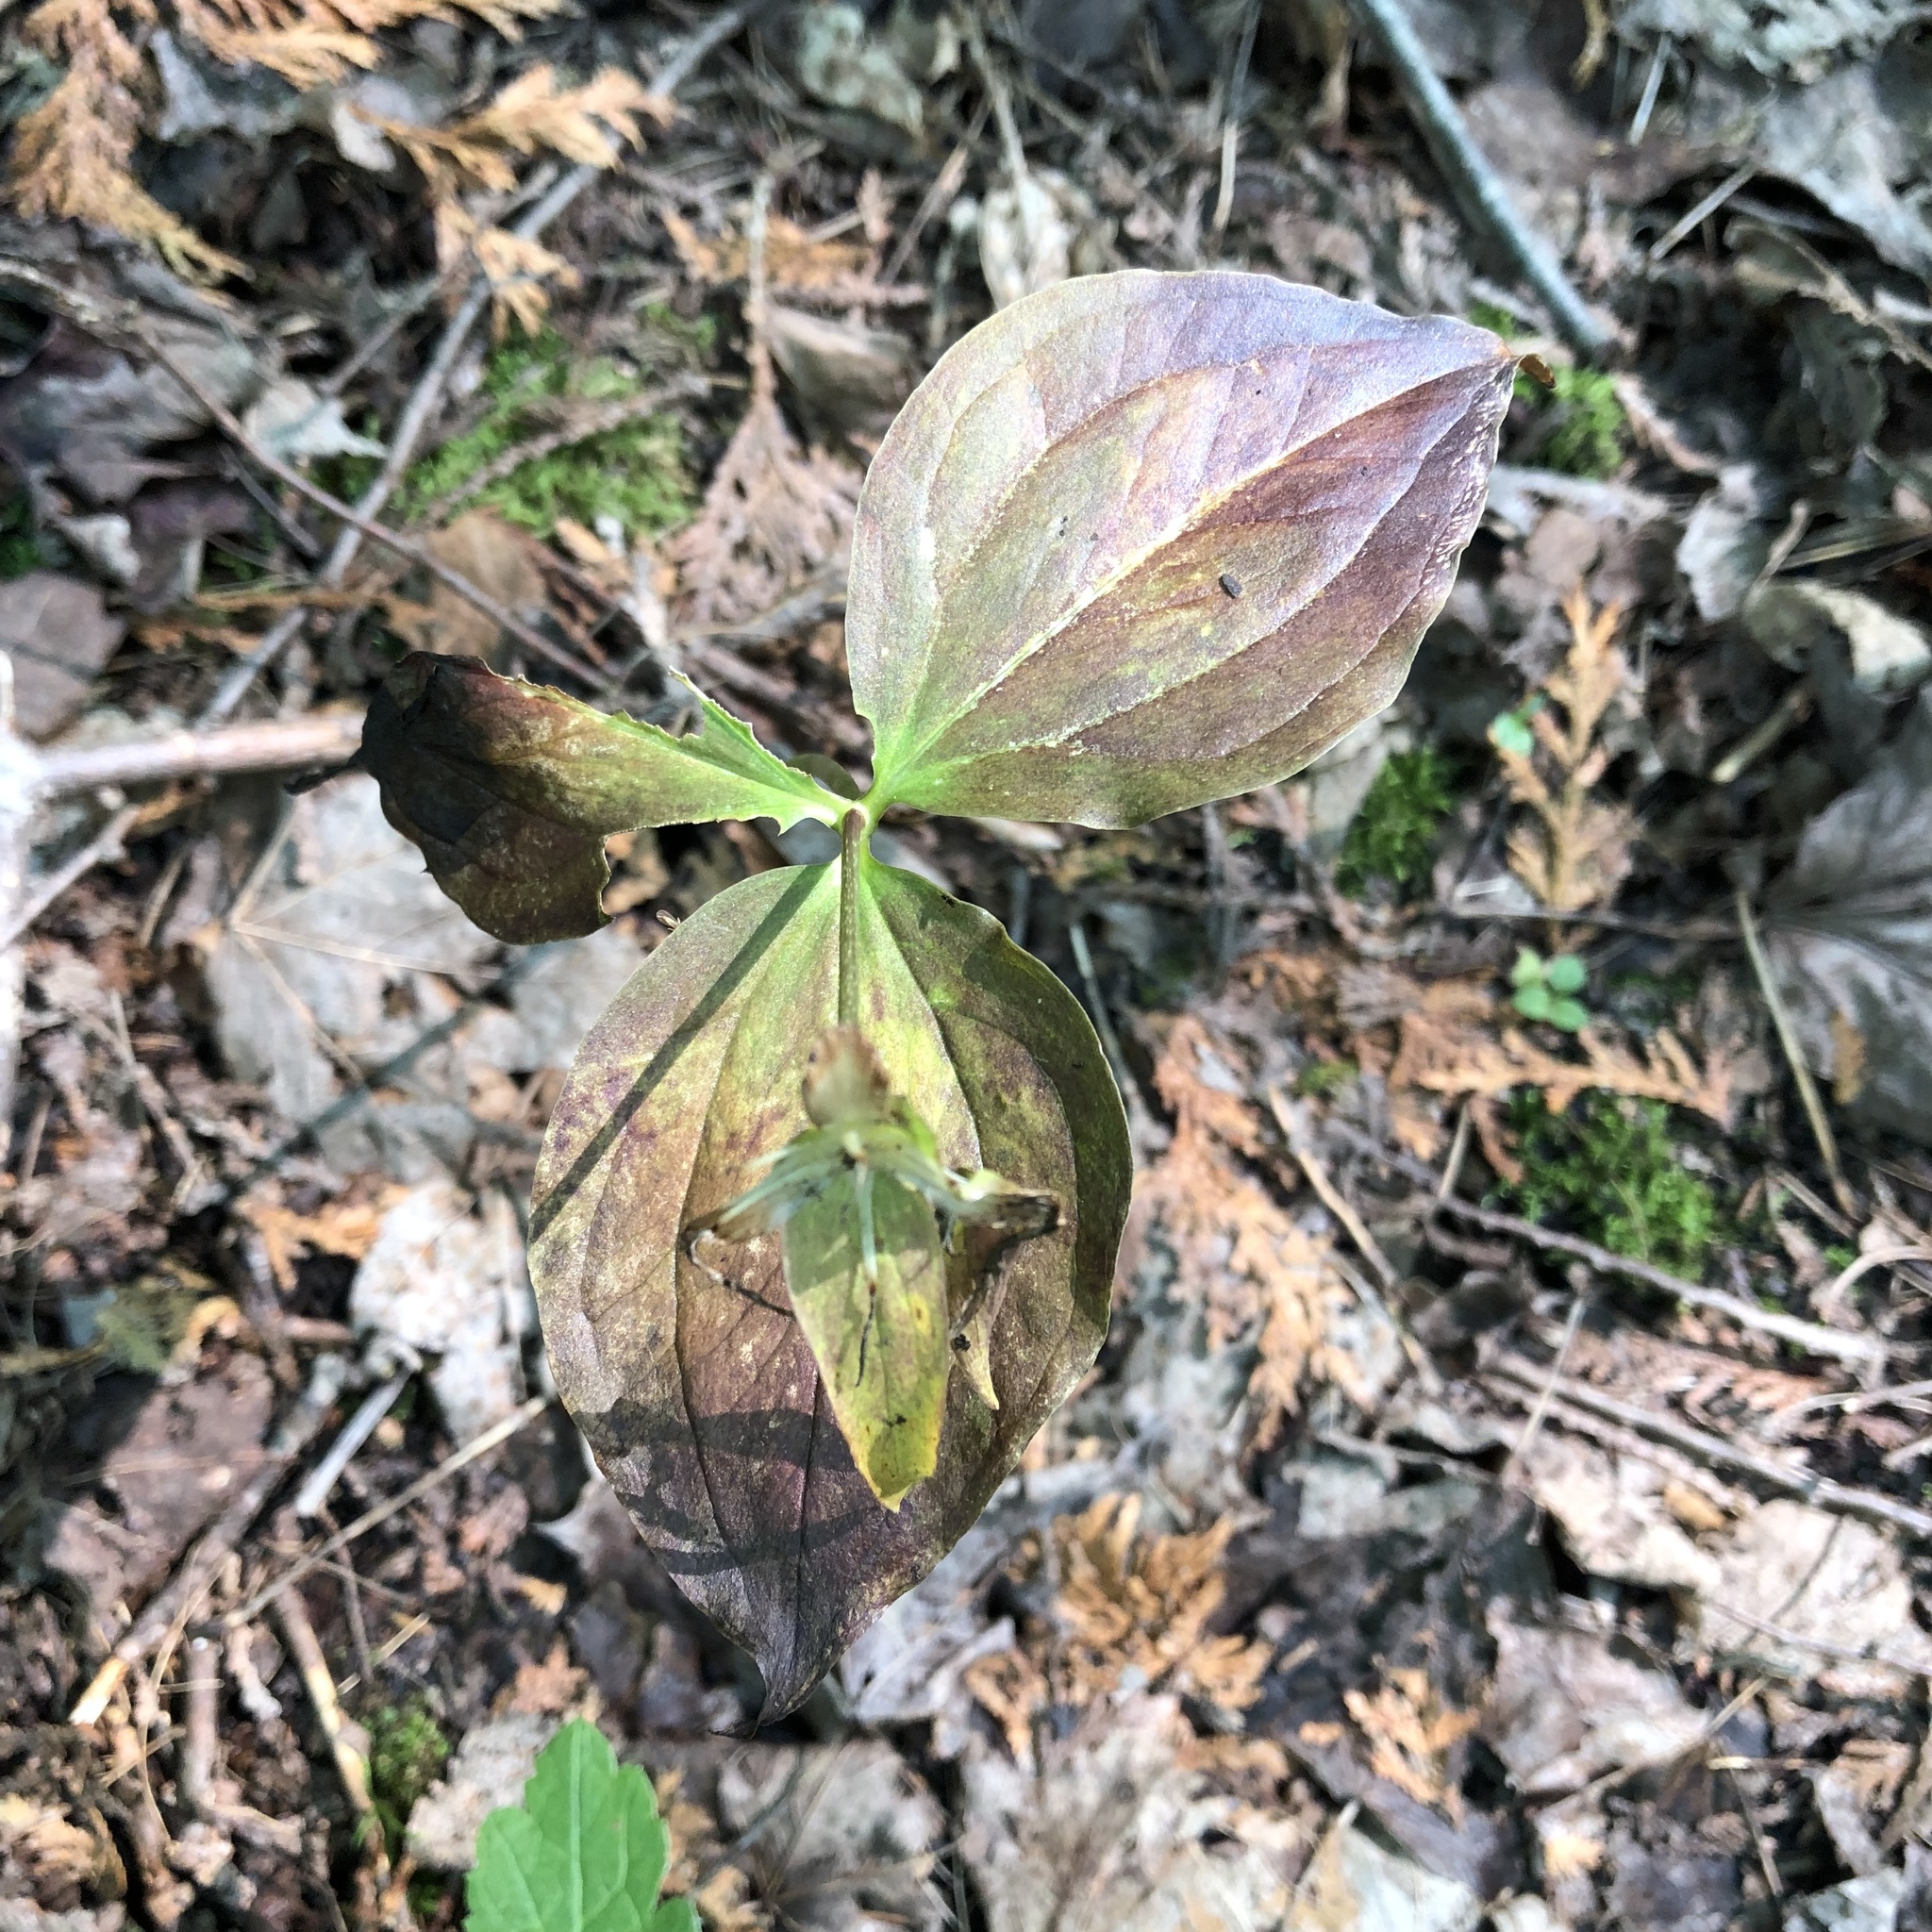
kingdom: Plantae
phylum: Tracheophyta
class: Liliopsida
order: Liliales
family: Melanthiaceae
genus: Trillium
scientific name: Trillium grandiflorum
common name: Great white trillium
